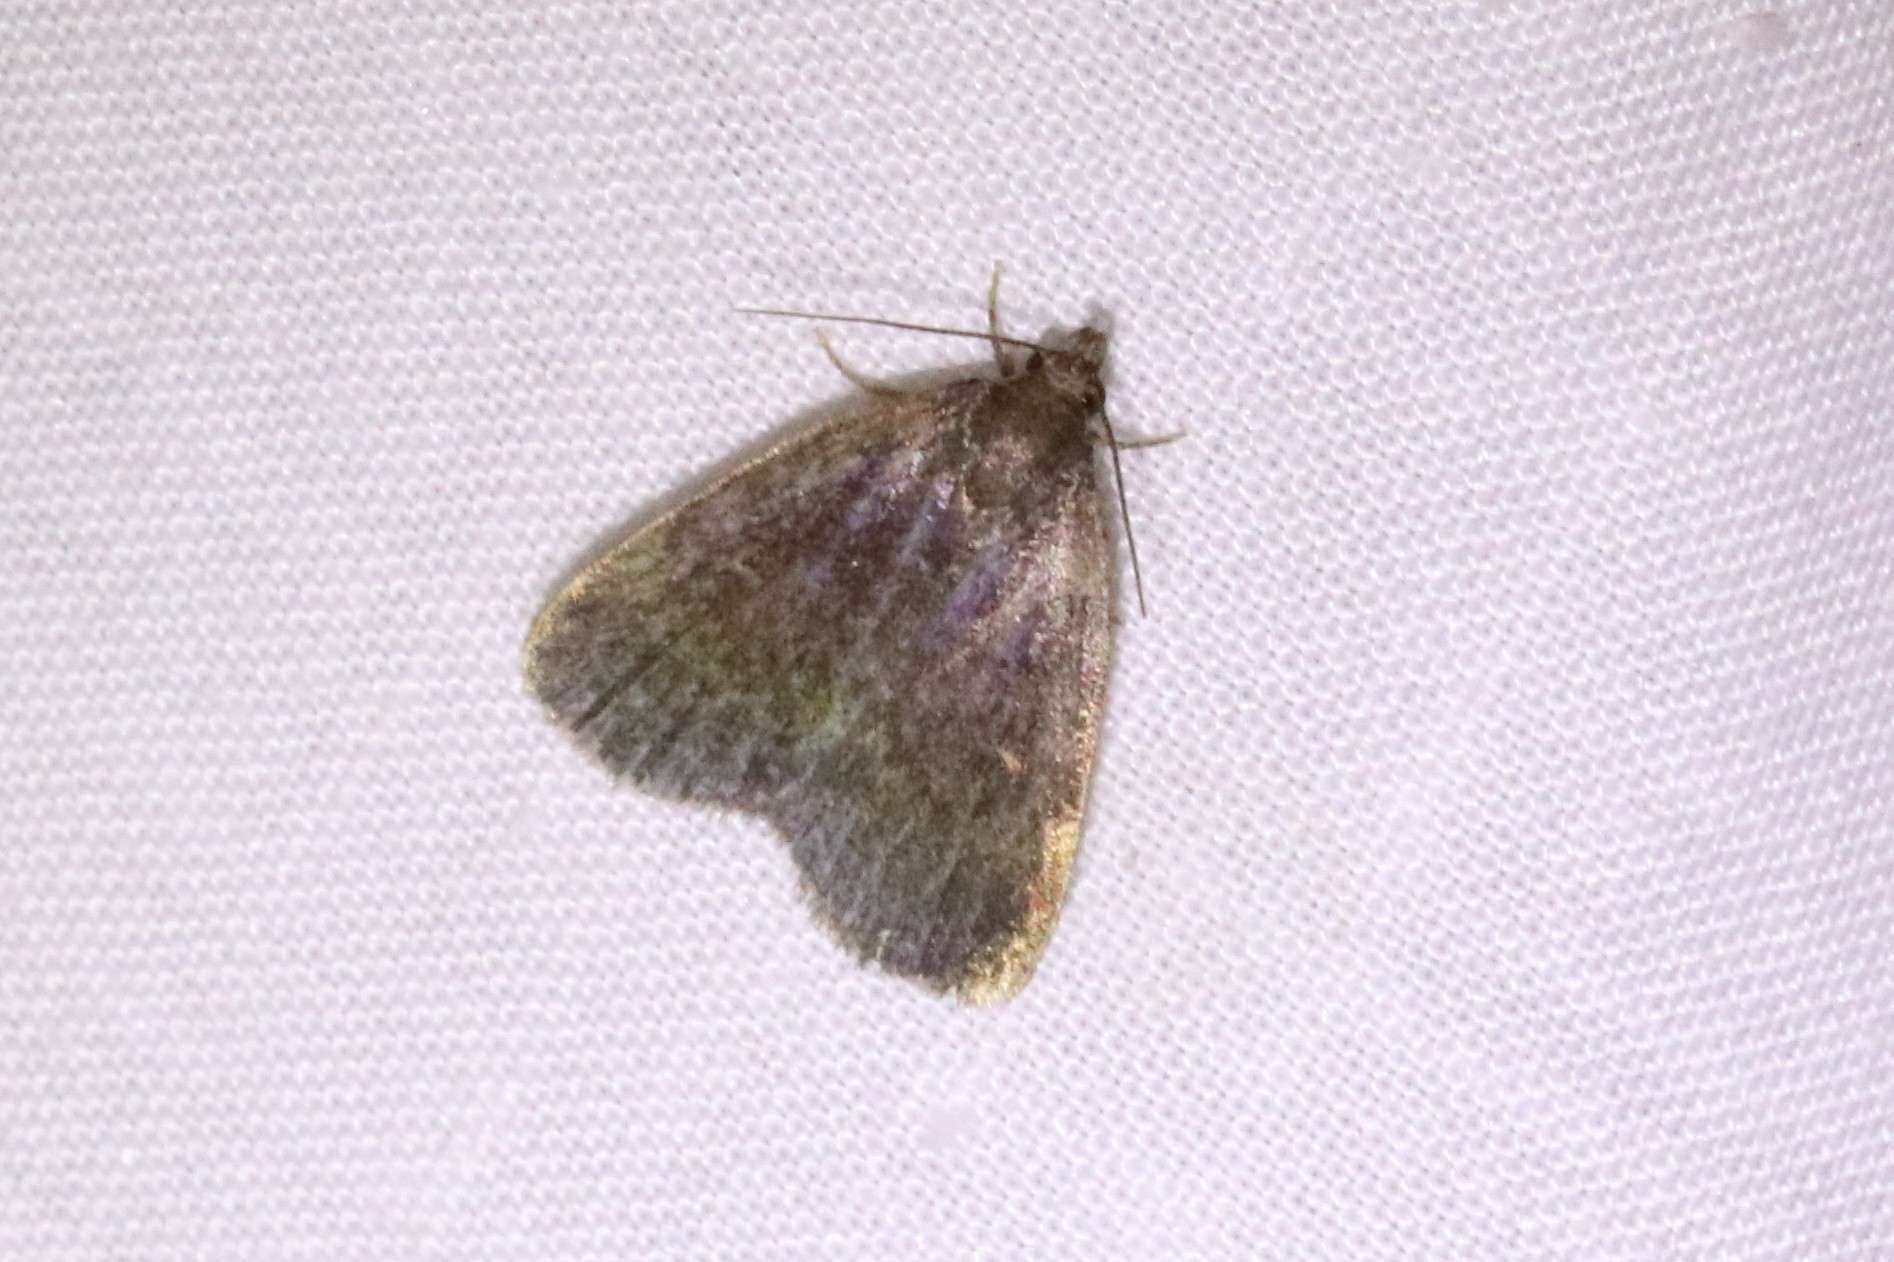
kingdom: Animalia
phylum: Arthropoda
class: Insecta
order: Lepidoptera
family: Erebidae
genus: Idia
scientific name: Idia rotundalis
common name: Rotund idia moth
